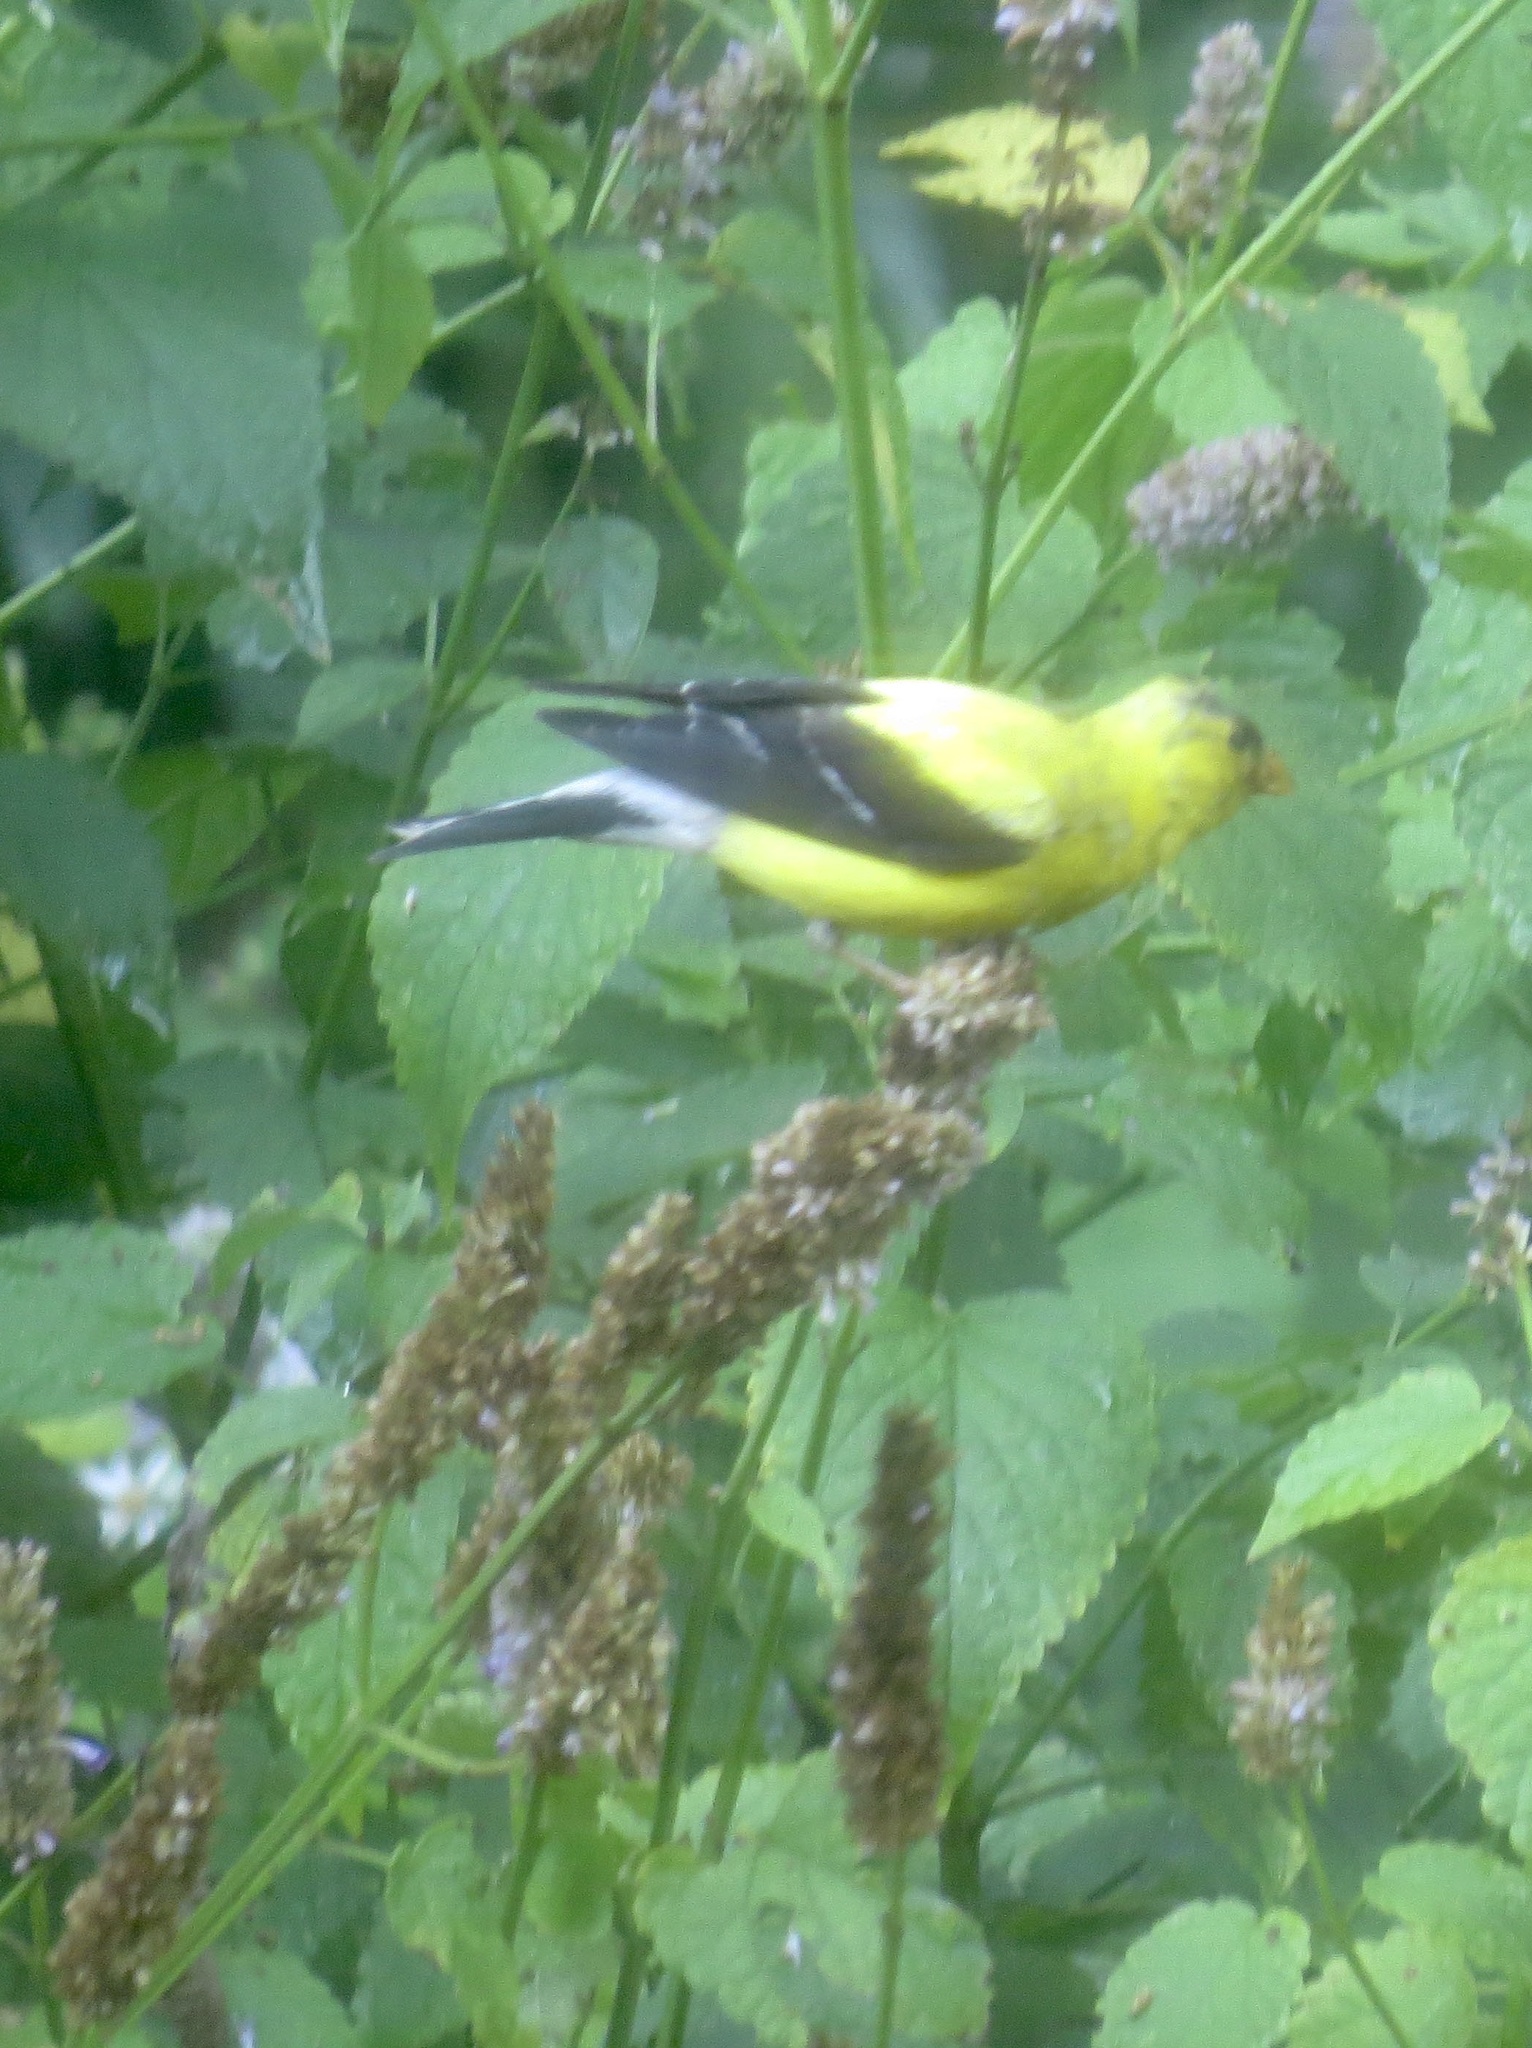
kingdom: Animalia
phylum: Chordata
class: Aves
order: Passeriformes
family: Fringillidae
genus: Spinus
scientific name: Spinus tristis
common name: American goldfinch
